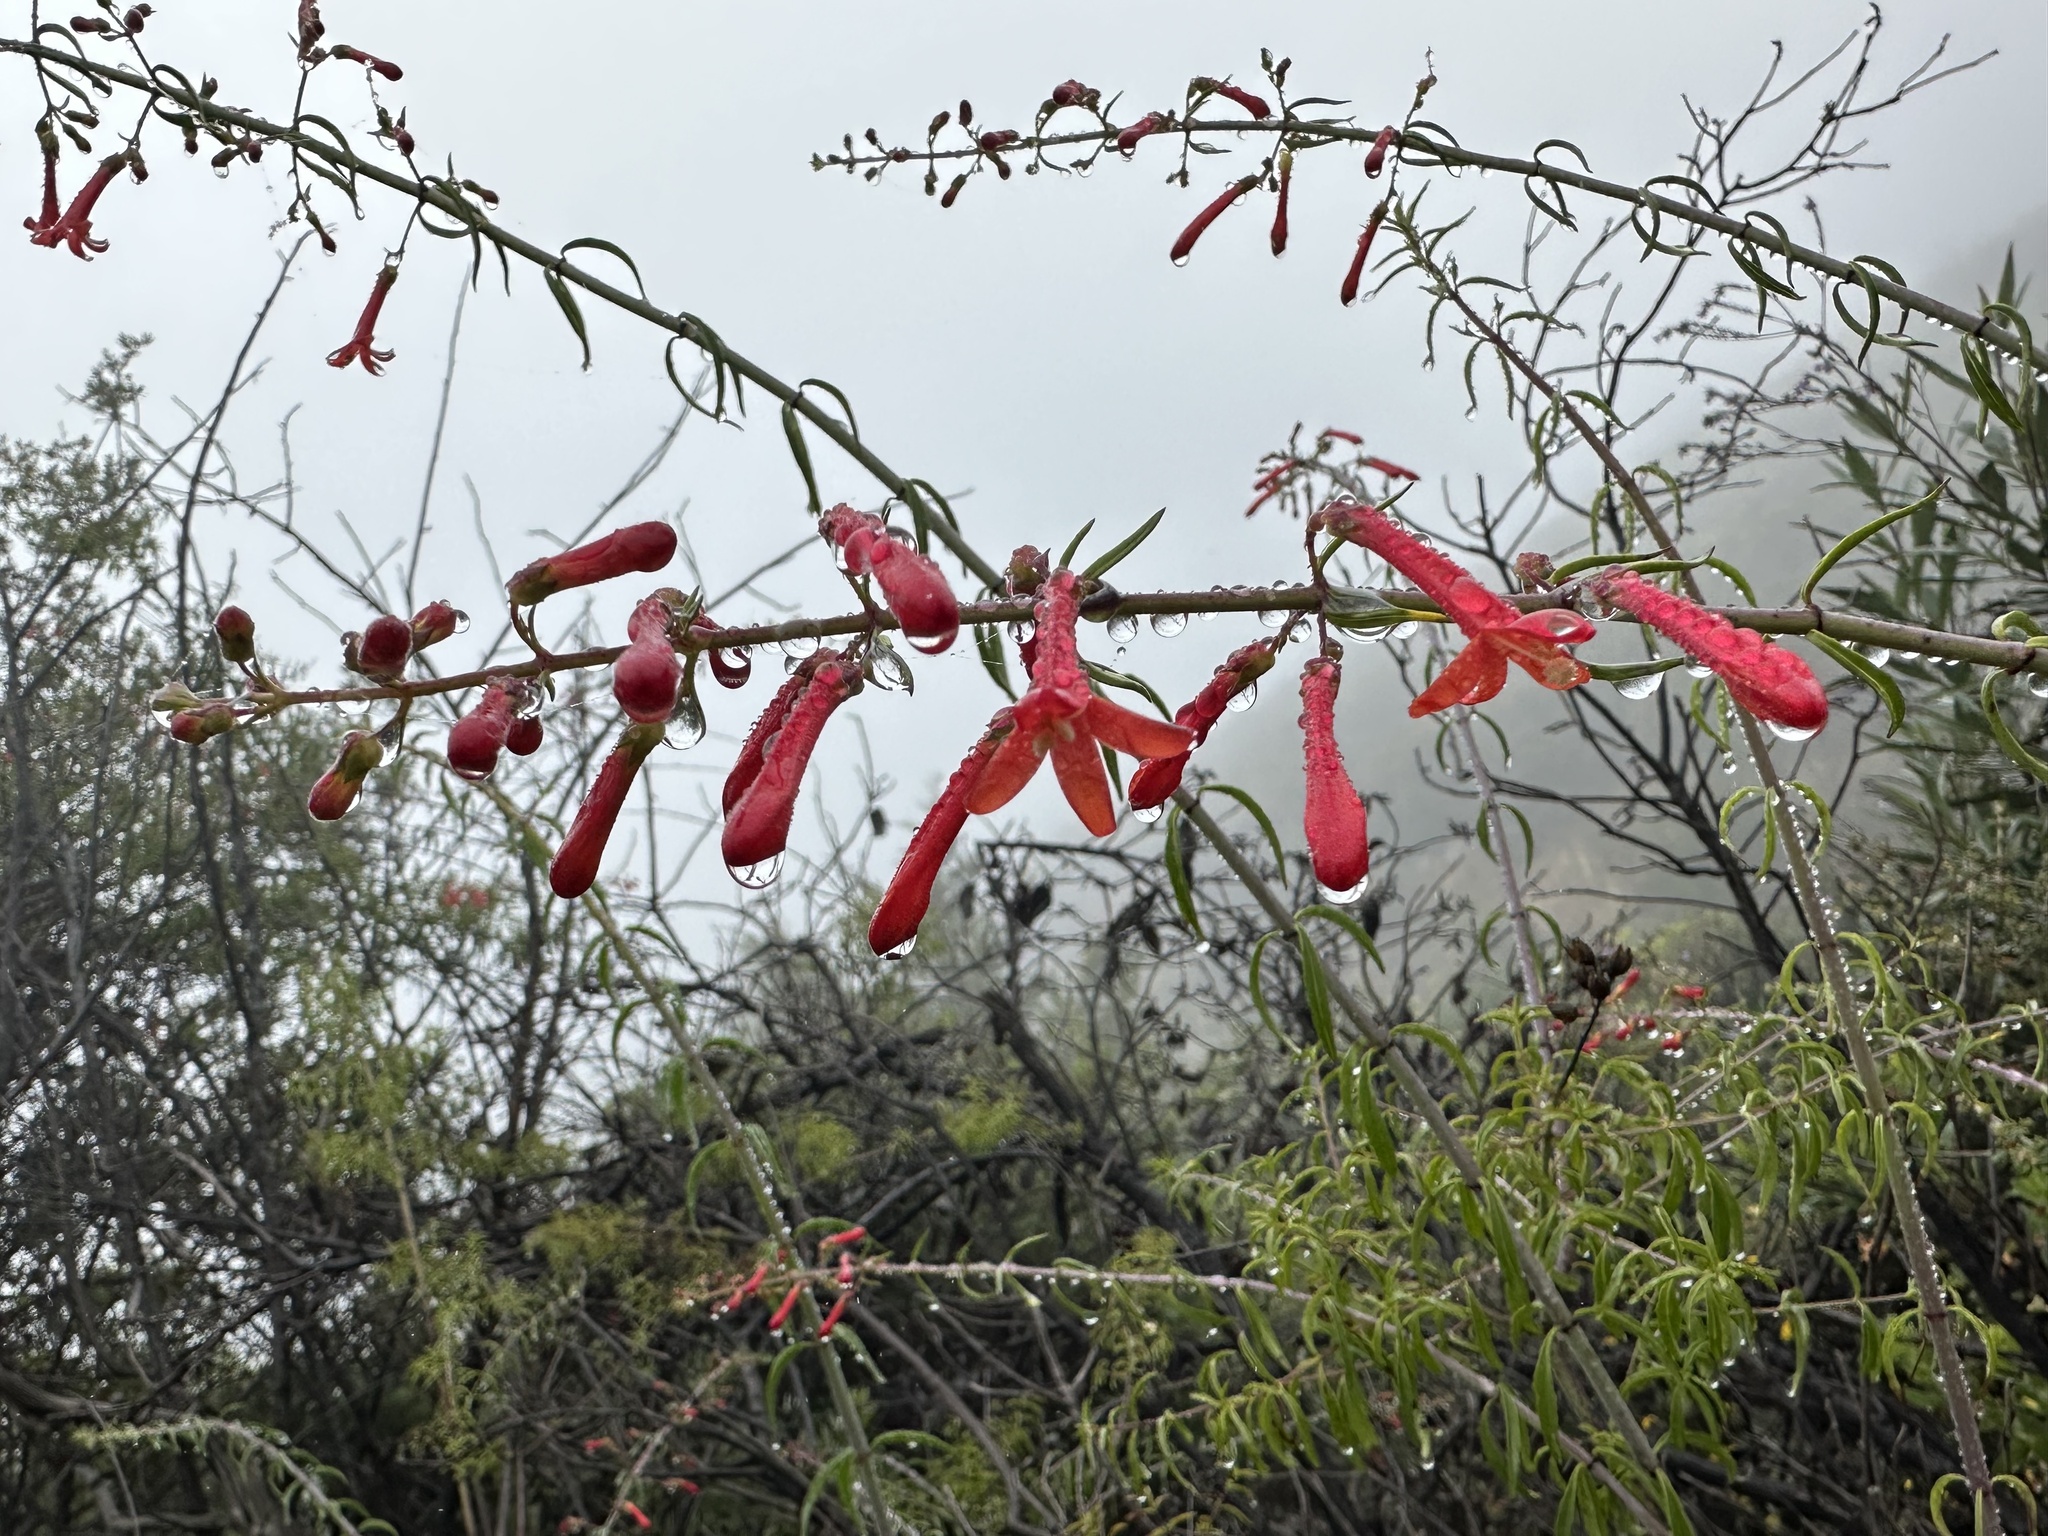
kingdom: Plantae
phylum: Tracheophyta
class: Magnoliopsida
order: Lamiales
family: Plantaginaceae
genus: Keckiella
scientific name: Keckiella ternata
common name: Scarlet keckiella
